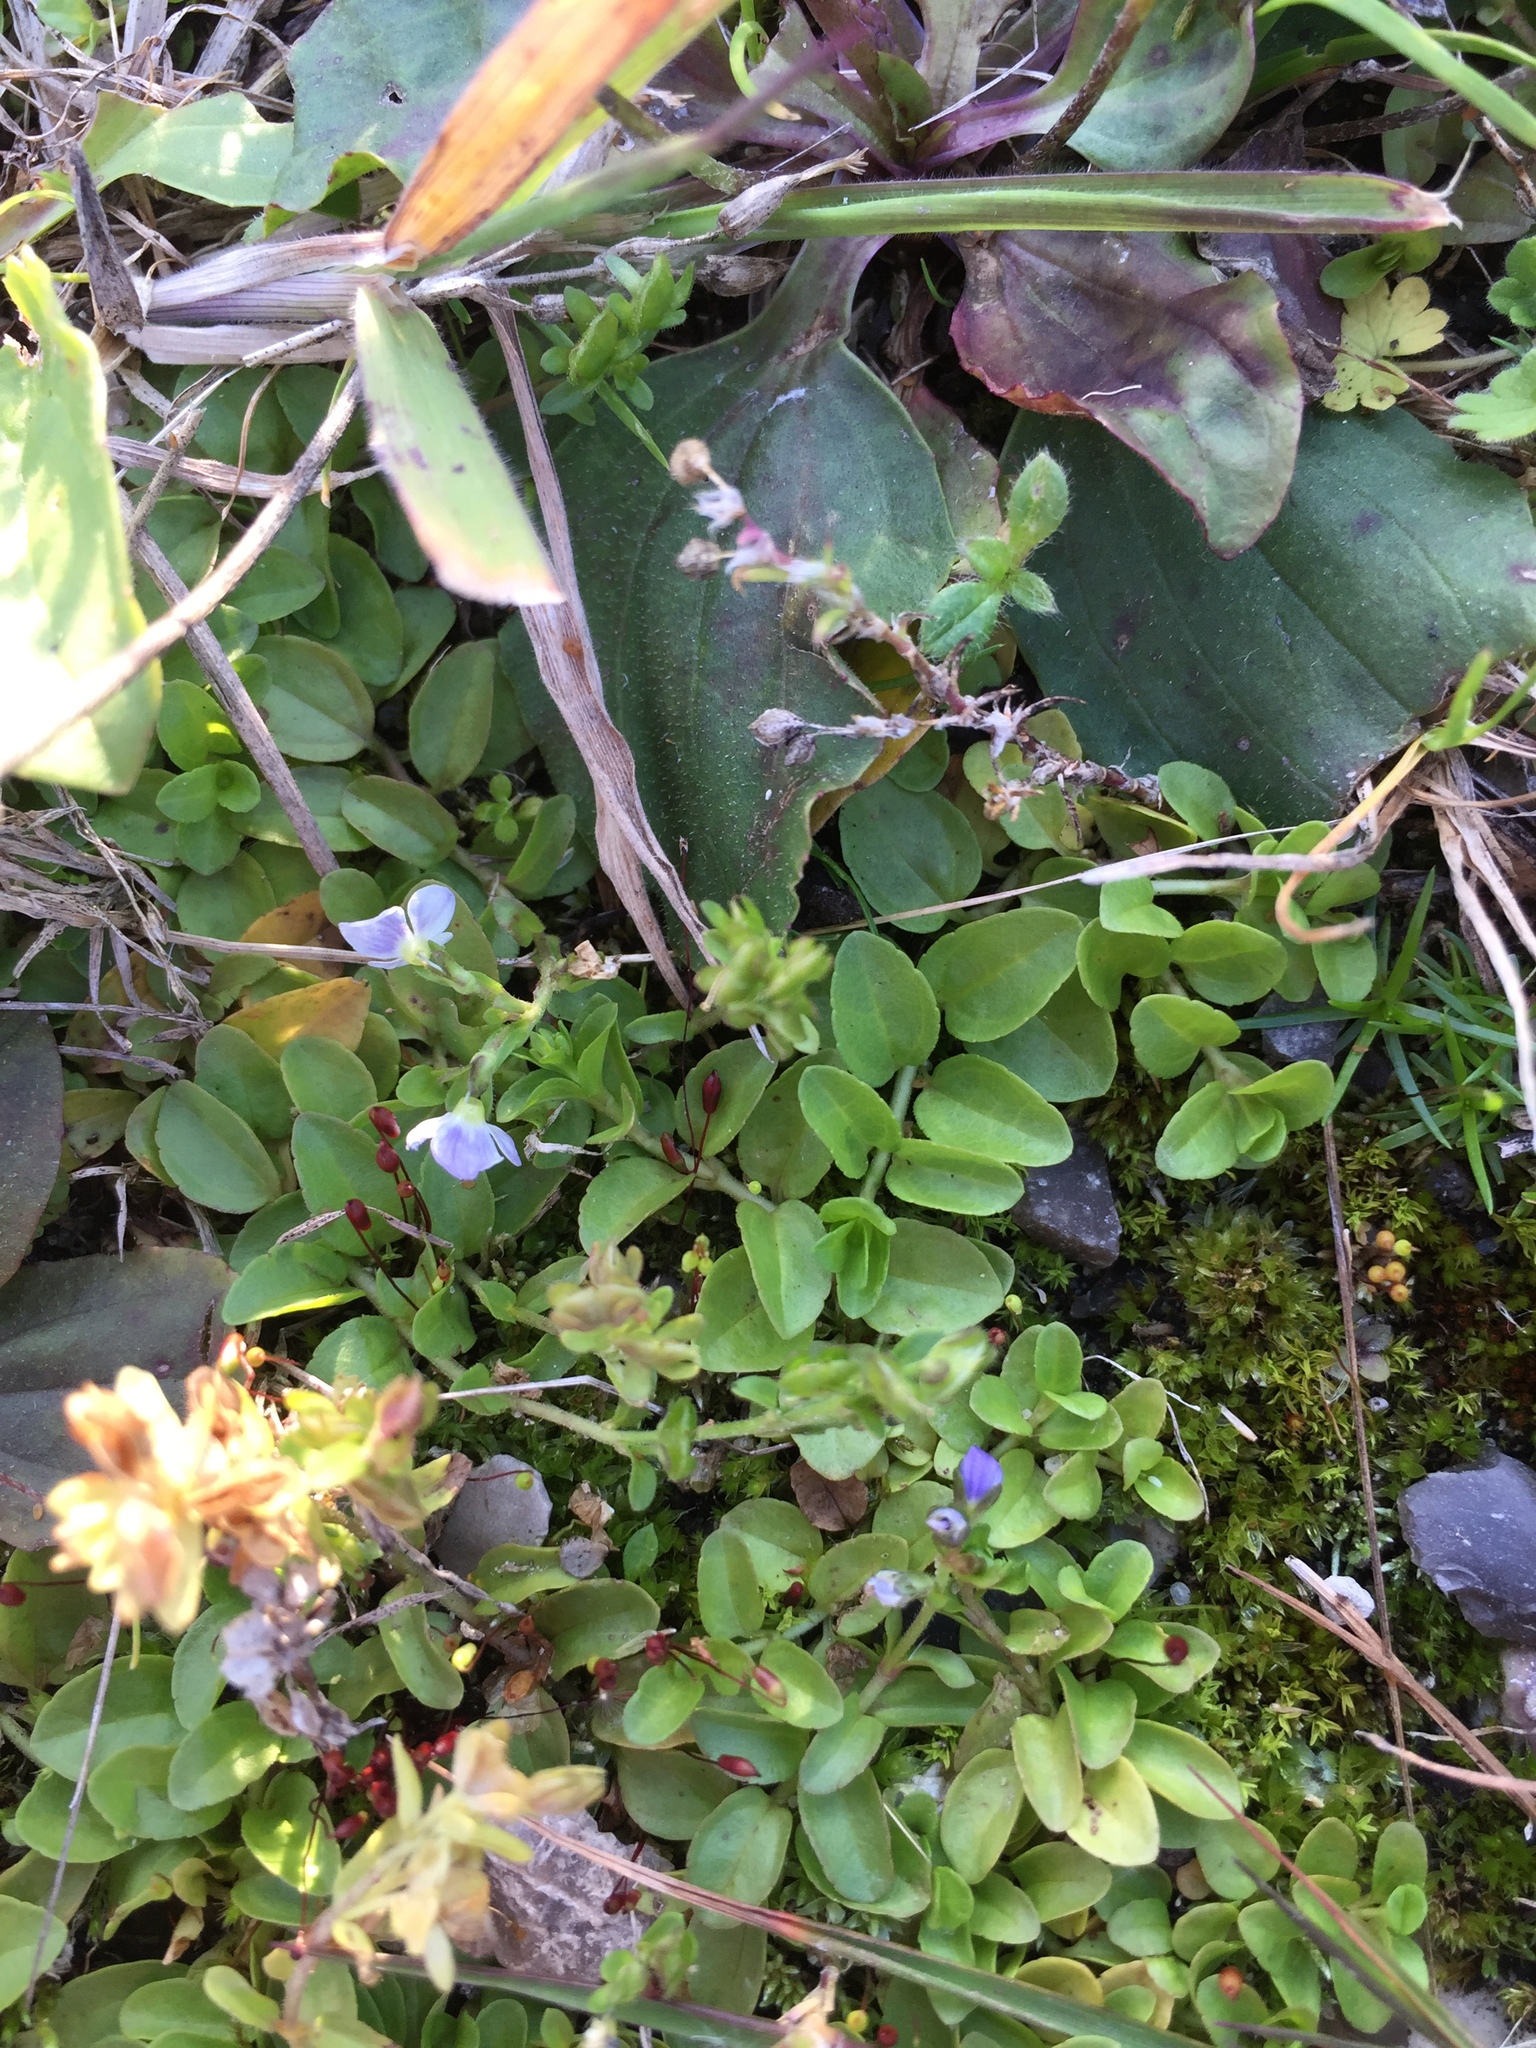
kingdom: Plantae
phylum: Tracheophyta
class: Magnoliopsida
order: Lamiales
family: Plantaginaceae
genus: Veronica
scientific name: Veronica serpyllifolia
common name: Thyme-leaved speedwell
